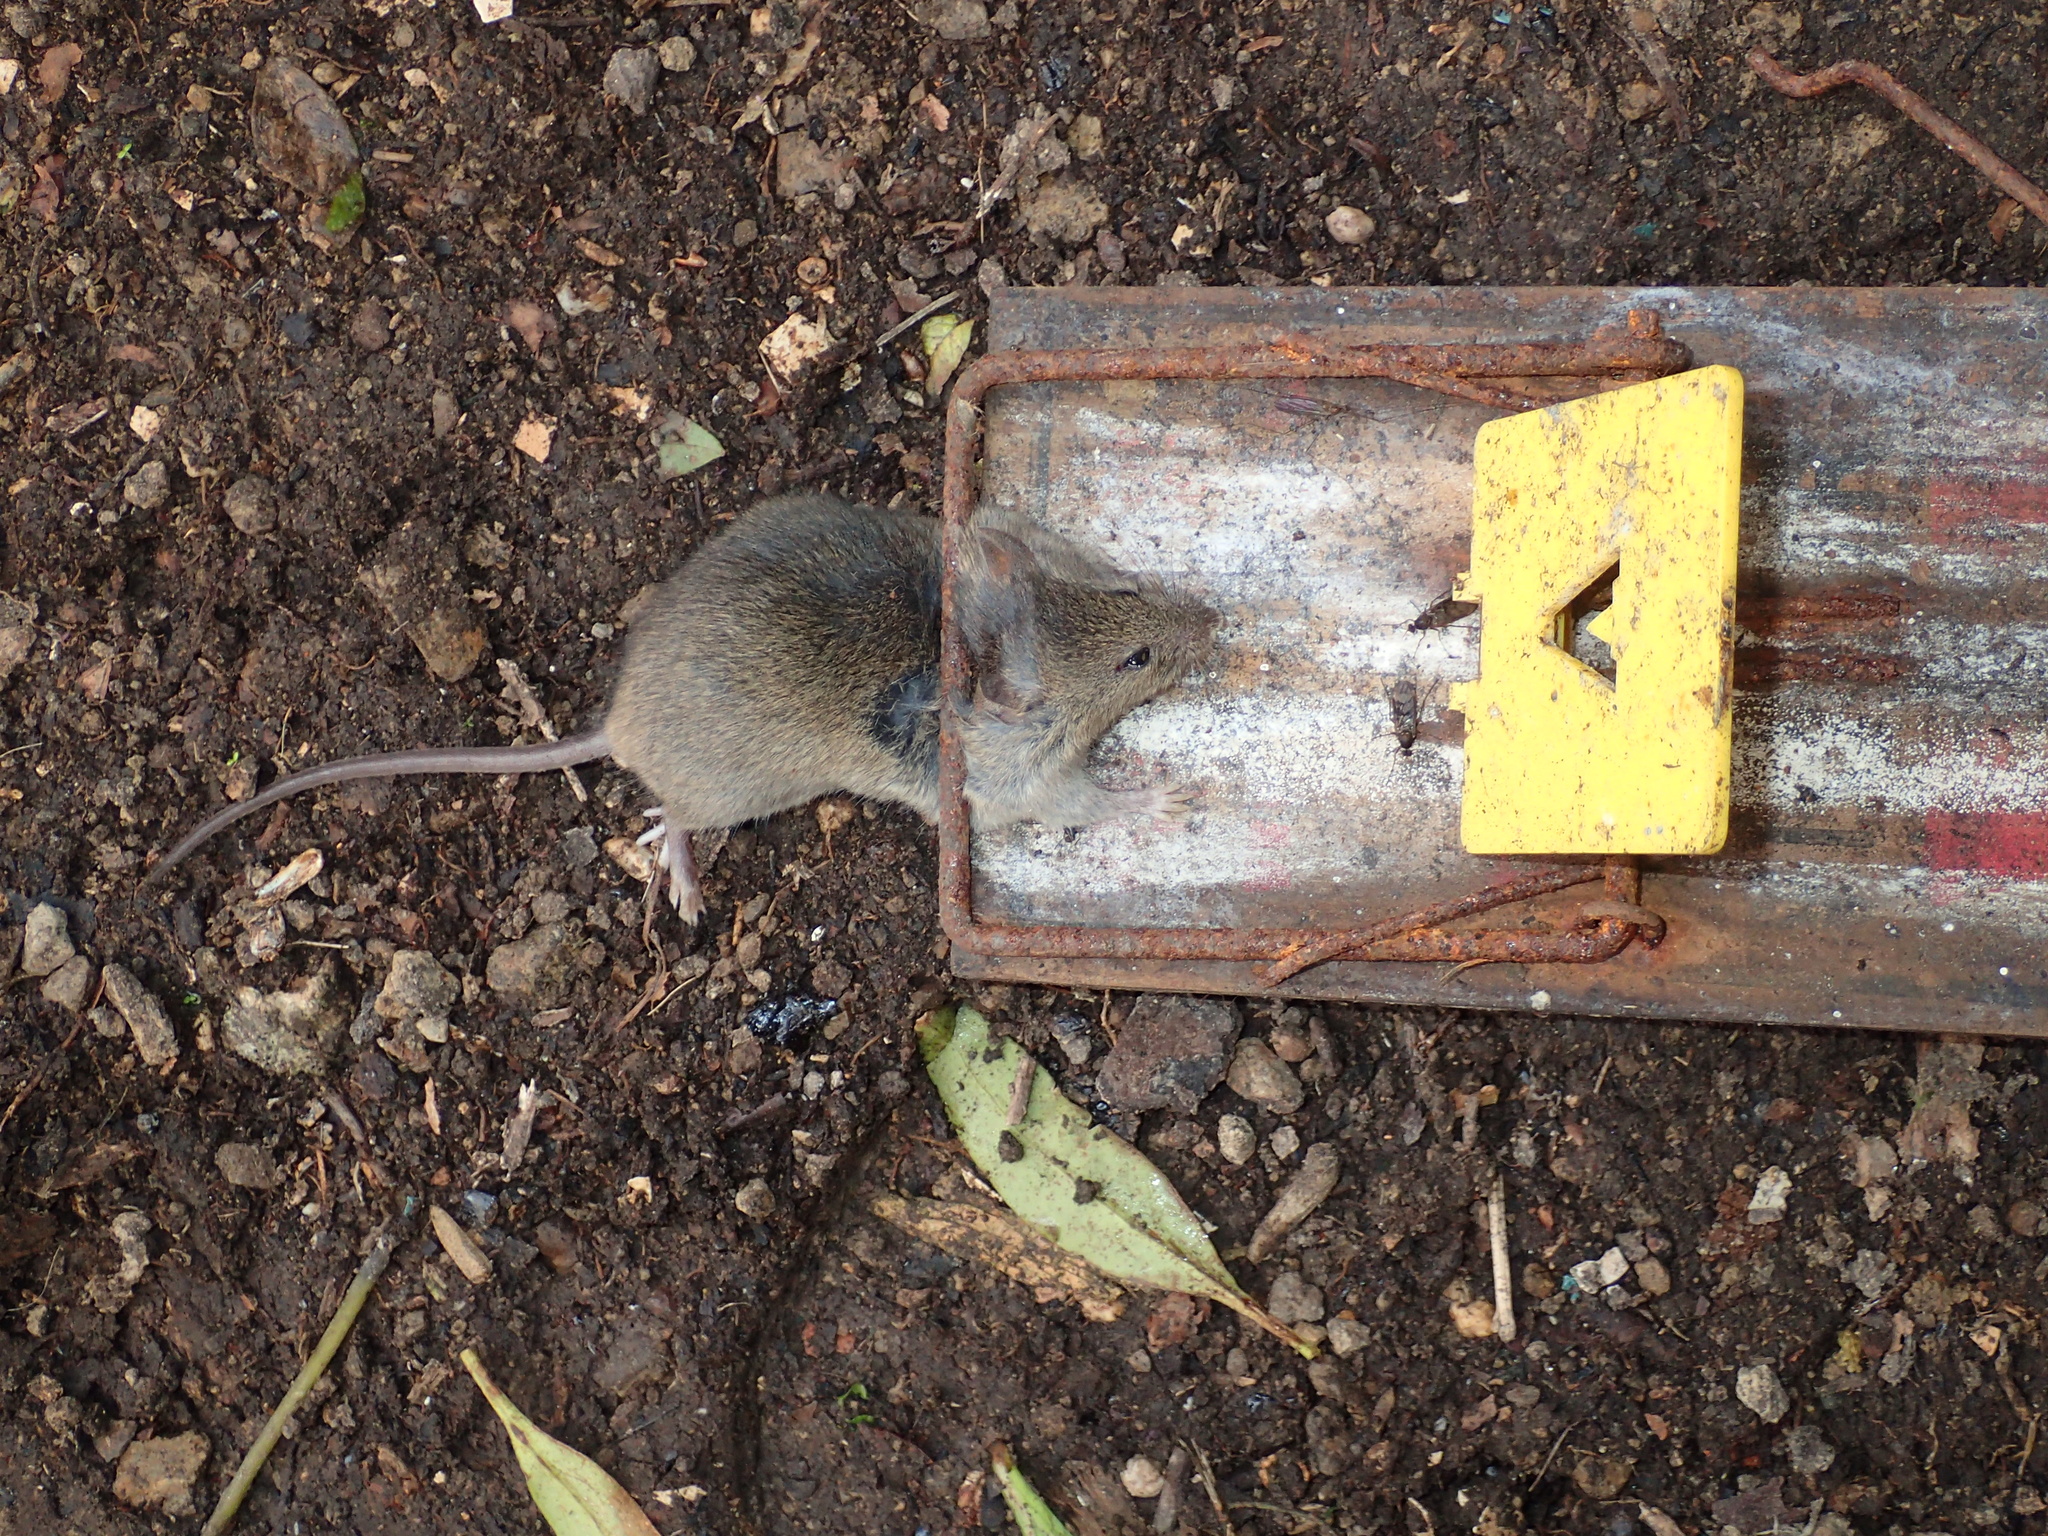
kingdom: Animalia
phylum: Chordata
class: Mammalia
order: Rodentia
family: Muridae
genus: Mus
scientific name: Mus musculus
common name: House mouse
